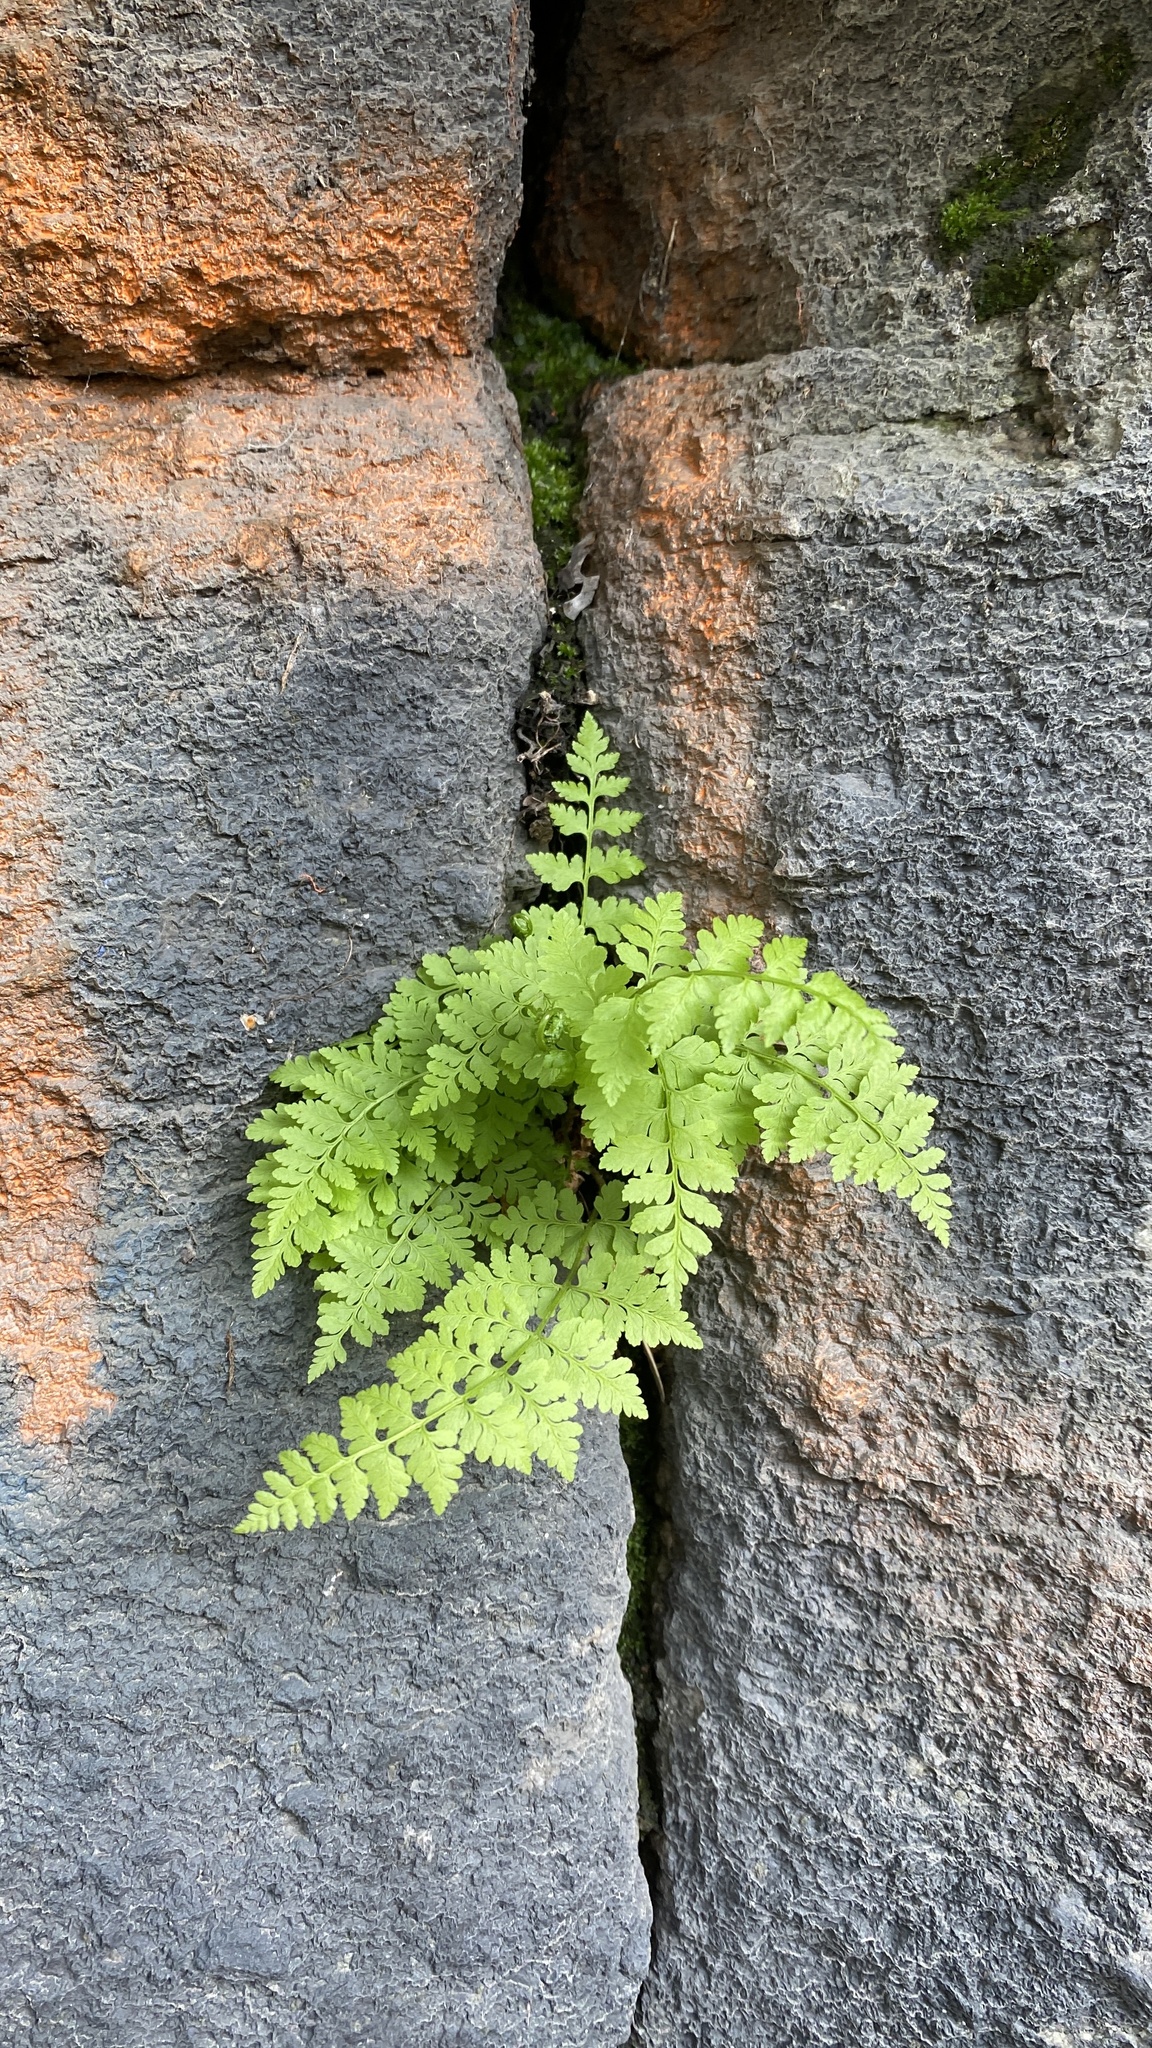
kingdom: Plantae
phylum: Tracheophyta
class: Polypodiopsida
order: Polypodiales
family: Cystopteridaceae
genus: Cystopteris
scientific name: Cystopteris fragilis
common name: Brittle bladder fern
